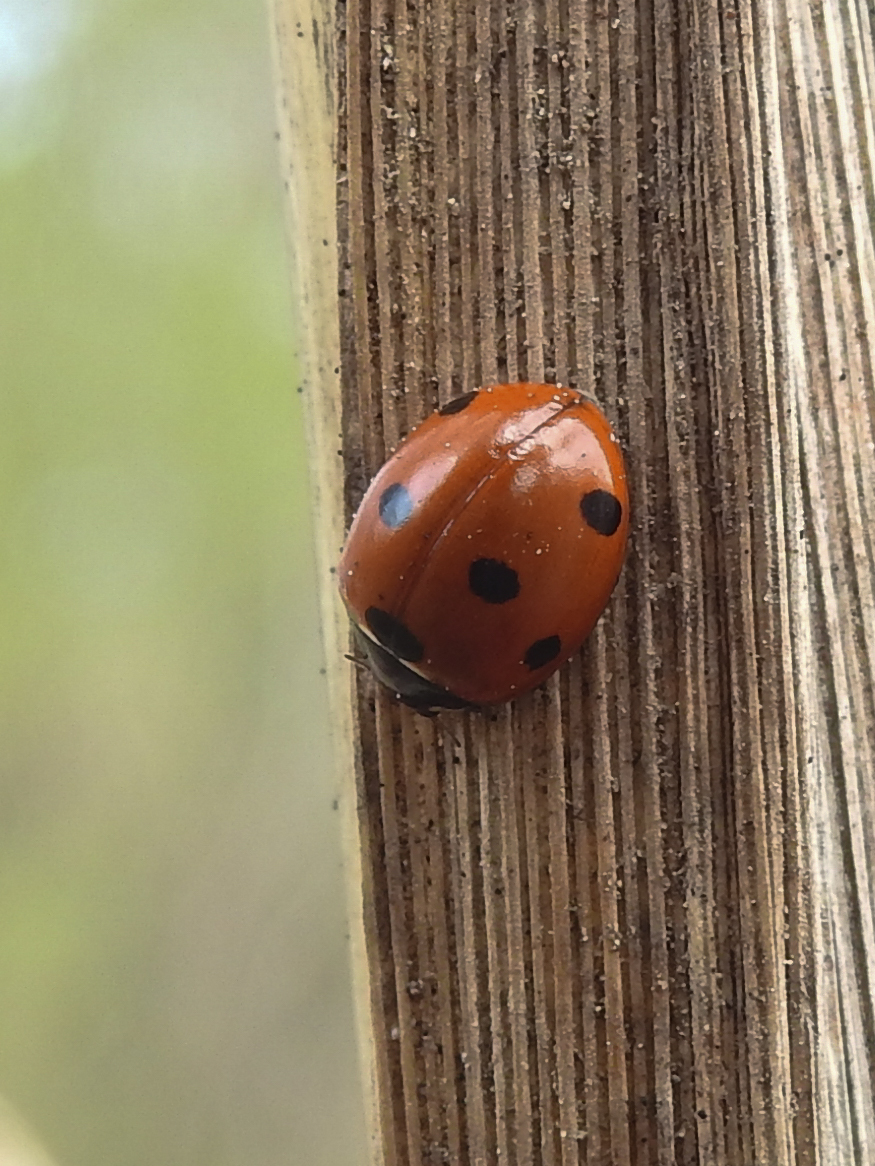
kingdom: Animalia
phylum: Arthropoda
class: Insecta
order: Coleoptera
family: Coccinellidae
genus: Coccinella
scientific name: Coccinella septempunctata
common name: Sevenspotted lady beetle
